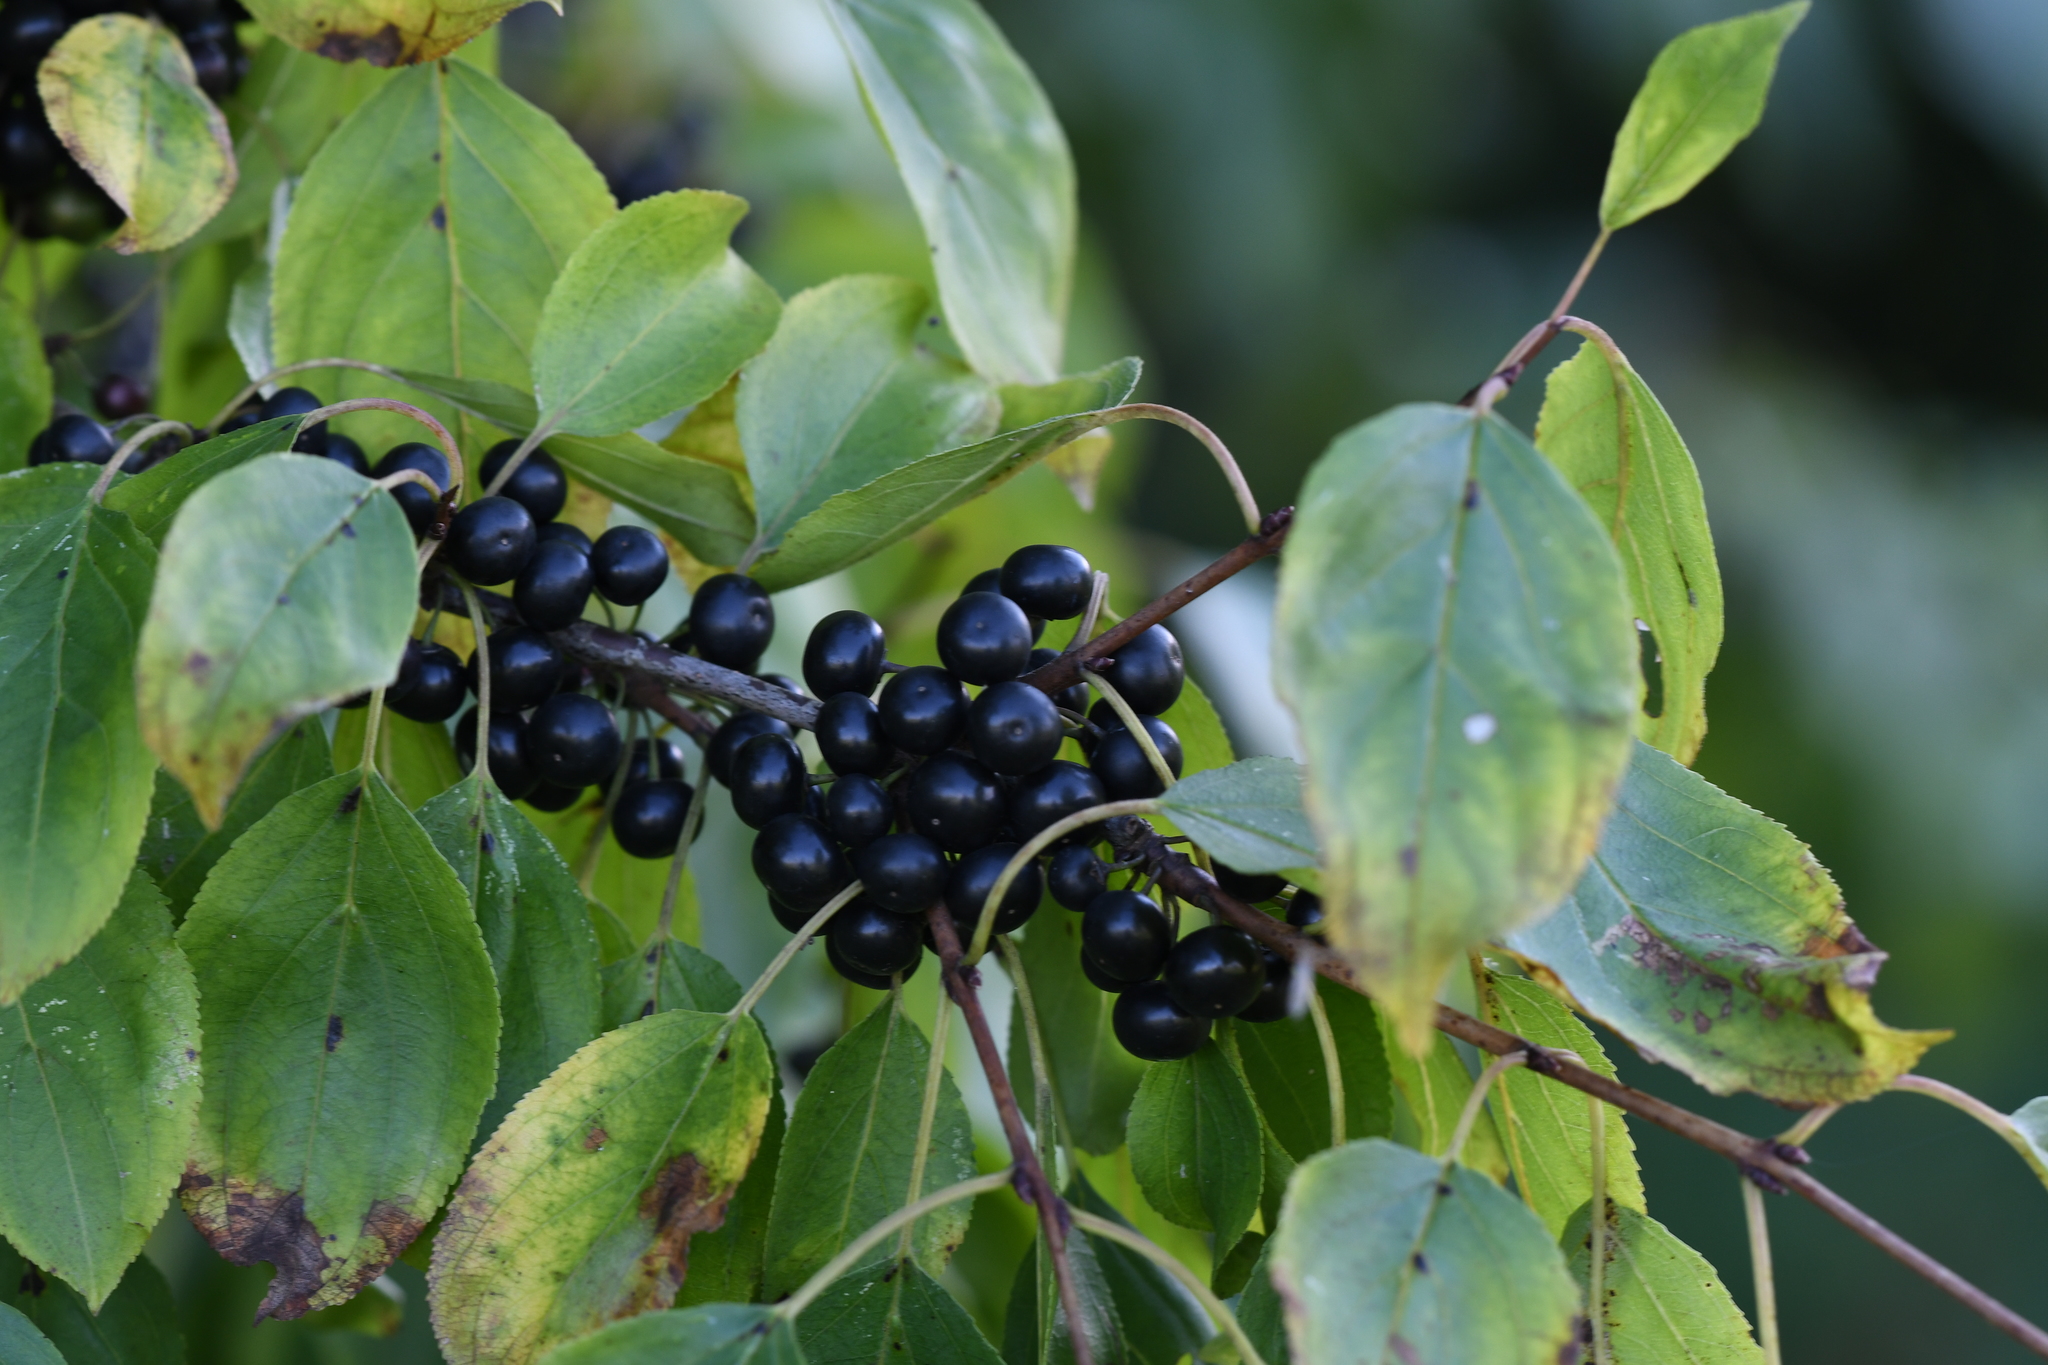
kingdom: Plantae
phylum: Tracheophyta
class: Magnoliopsida
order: Rosales
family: Rhamnaceae
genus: Rhamnus
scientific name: Rhamnus cathartica
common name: Common buckthorn
